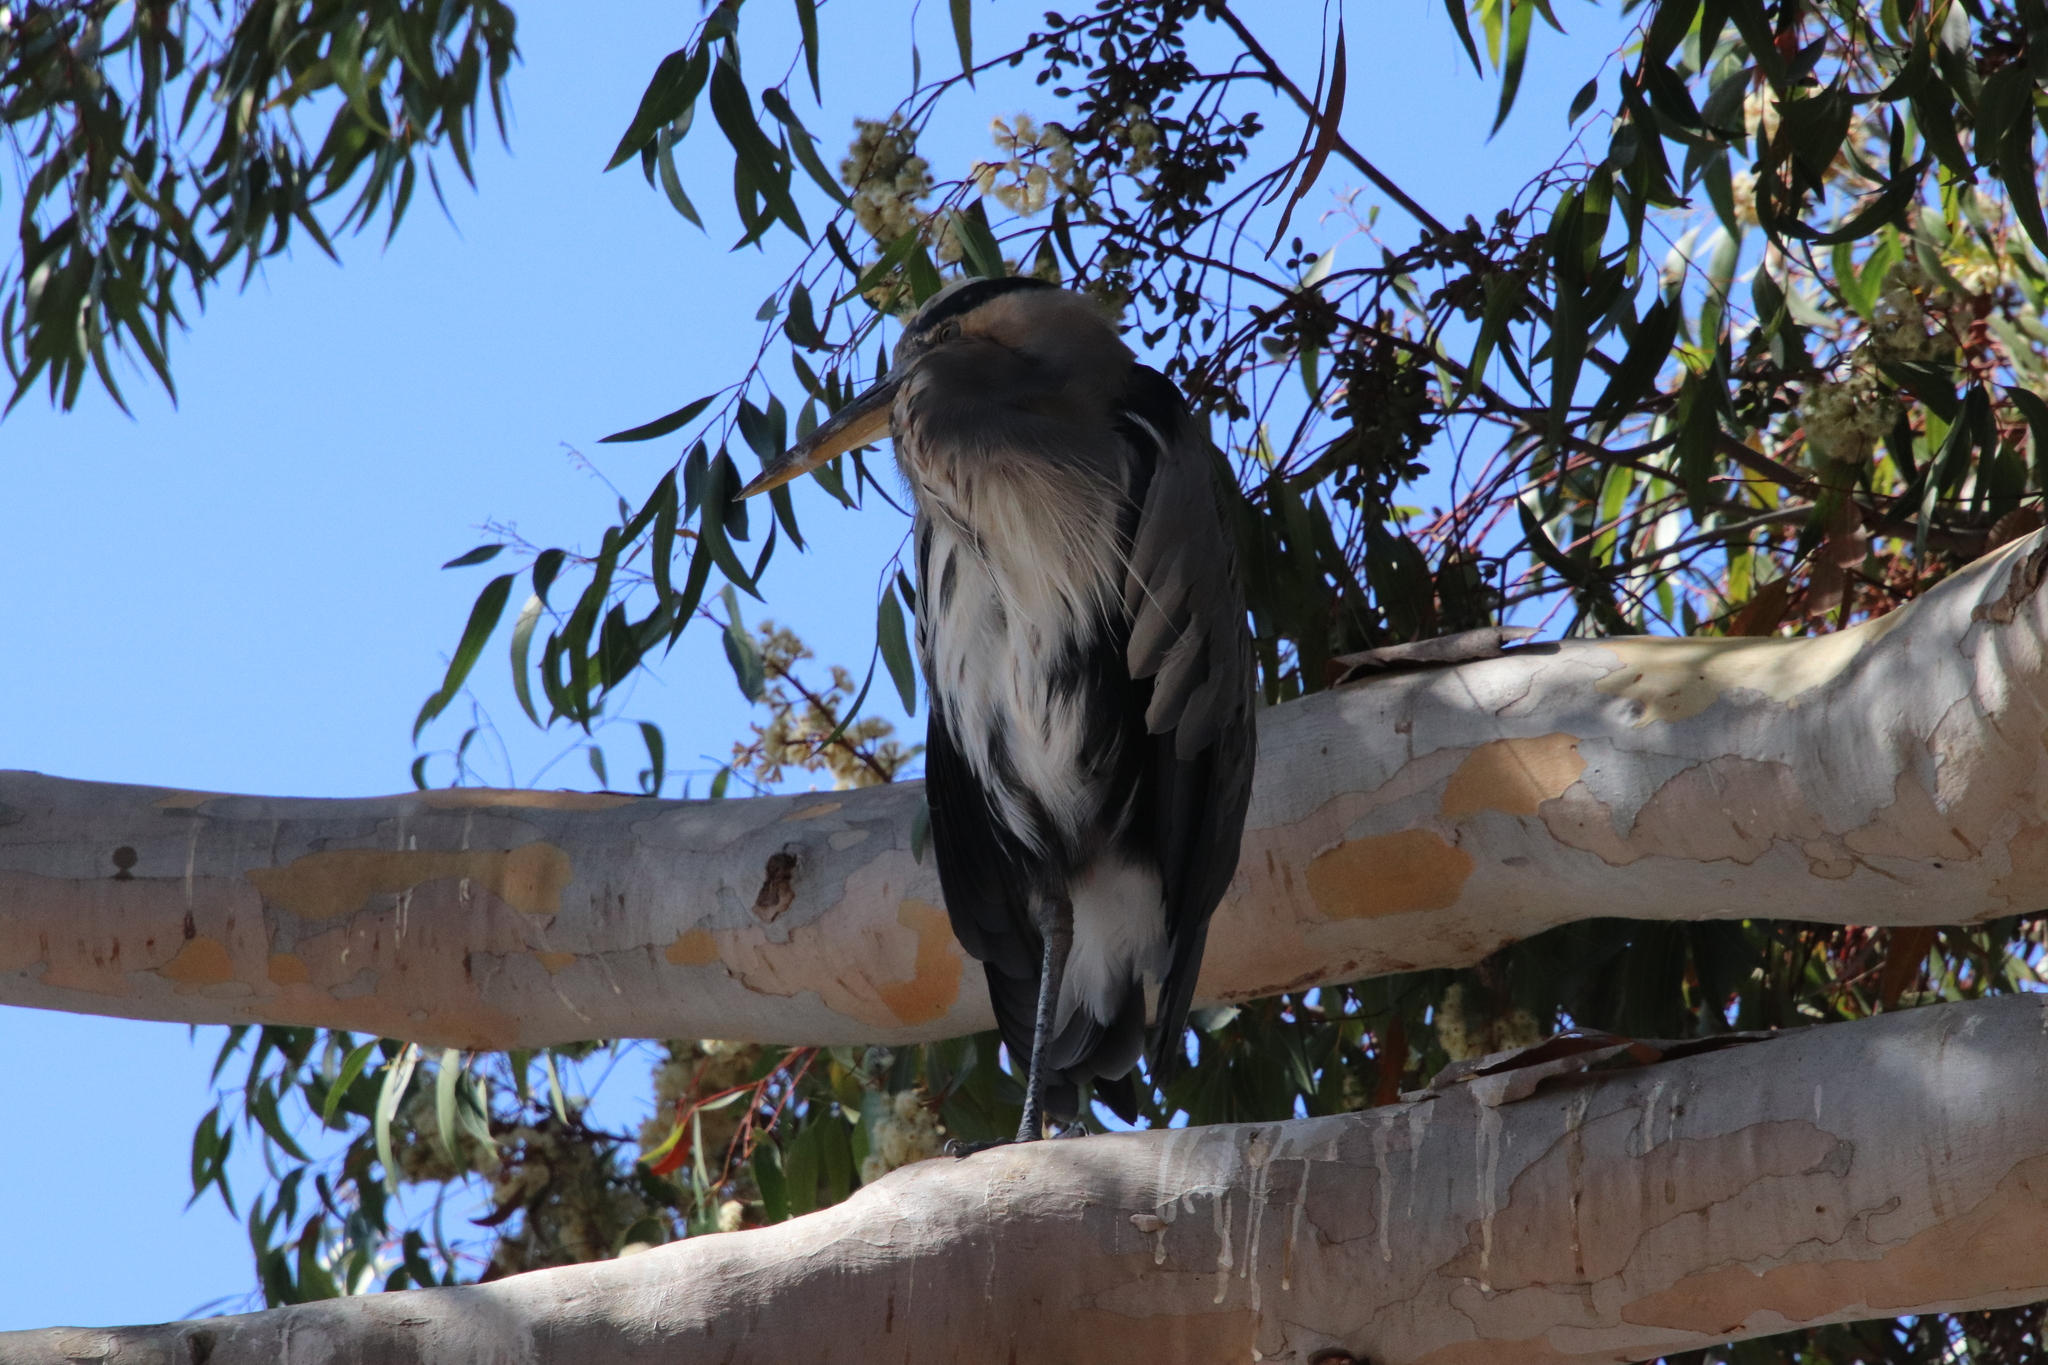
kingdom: Animalia
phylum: Chordata
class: Aves
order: Pelecaniformes
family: Ardeidae
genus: Ardea
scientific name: Ardea herodias
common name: Great blue heron
